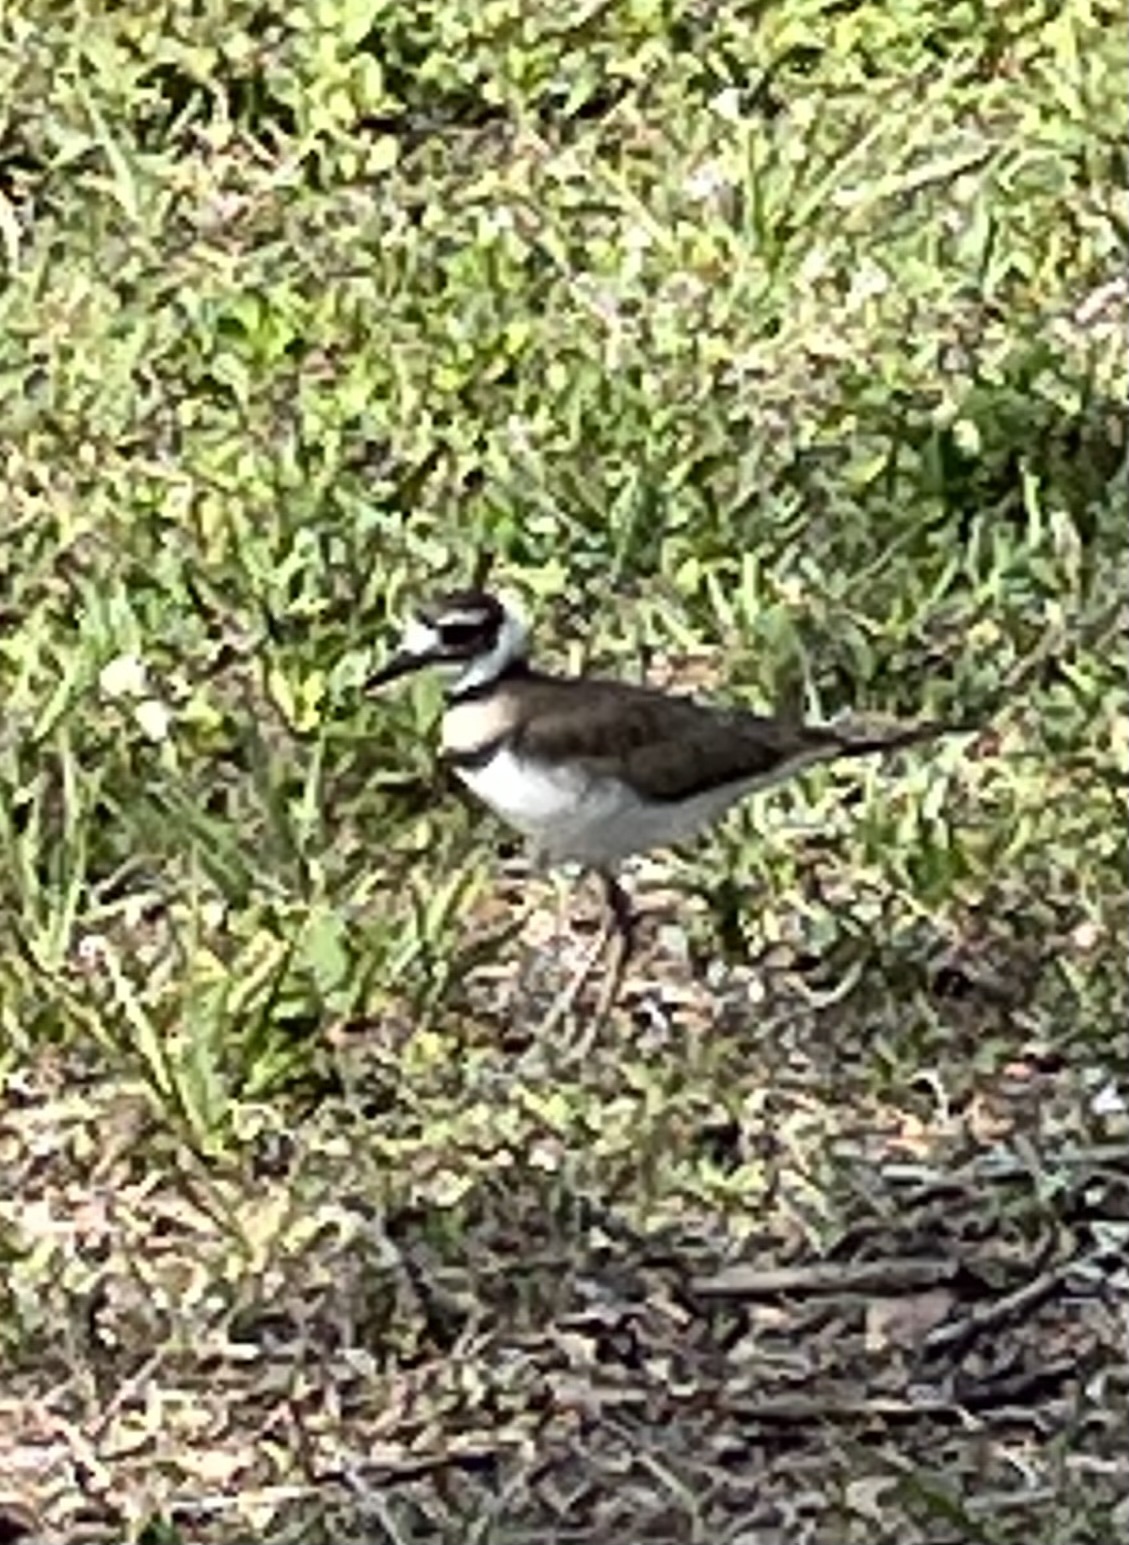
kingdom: Animalia
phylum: Chordata
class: Aves
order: Charadriiformes
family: Charadriidae
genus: Charadrius
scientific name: Charadrius vociferus
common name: Killdeer
